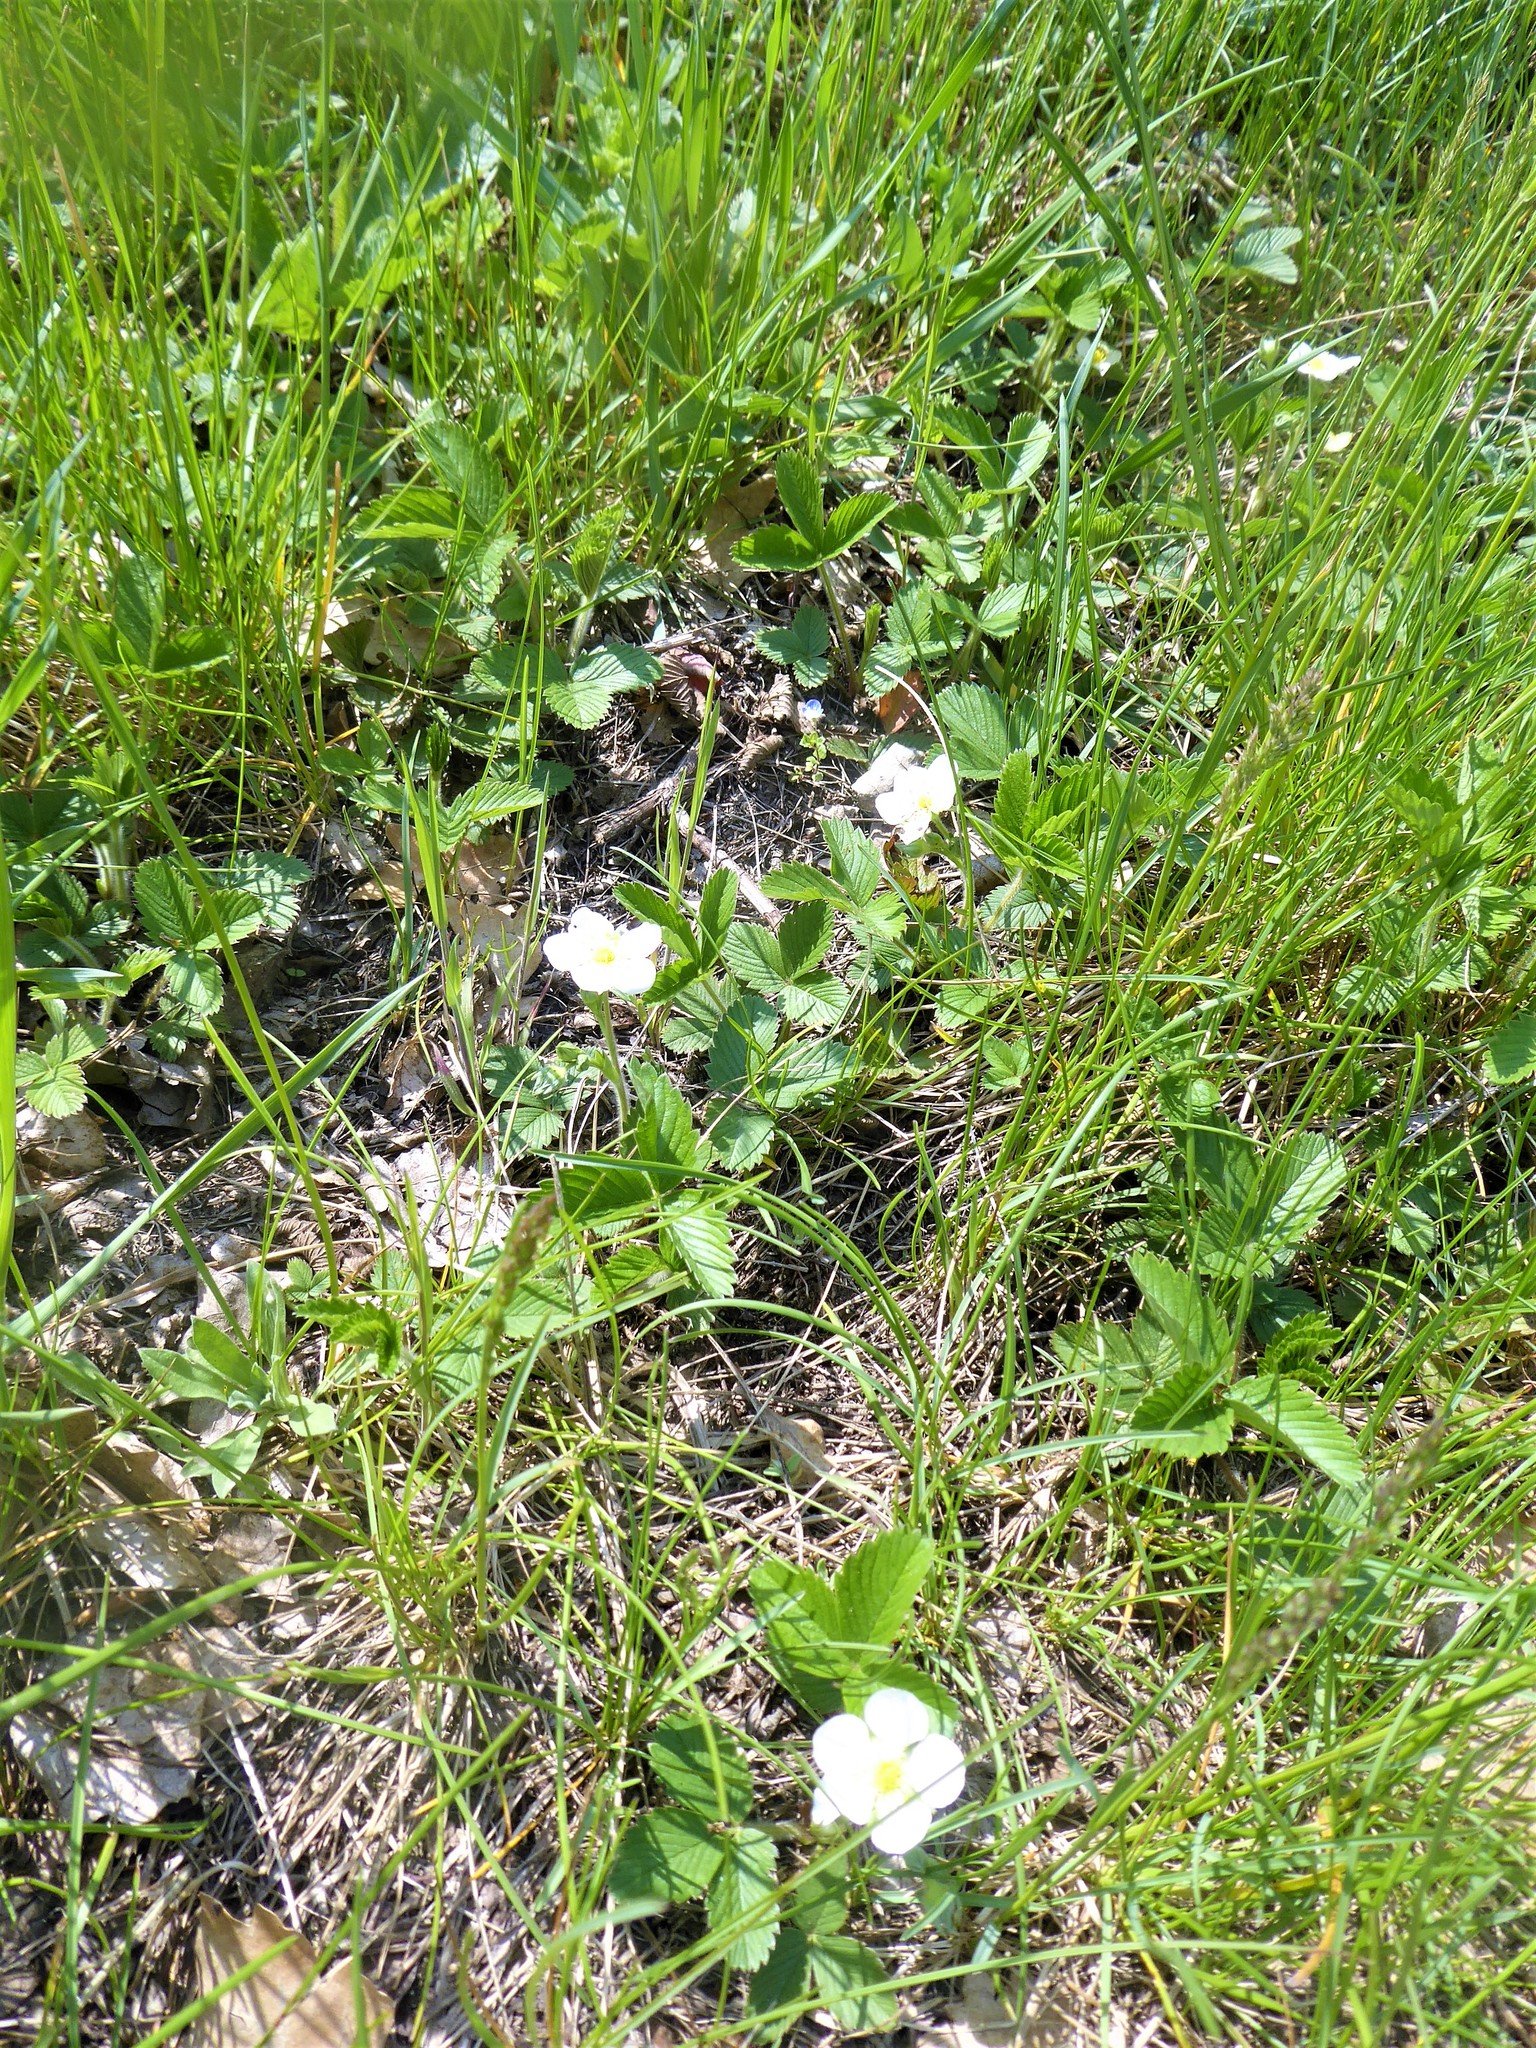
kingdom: Plantae
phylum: Tracheophyta
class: Magnoliopsida
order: Rosales
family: Rosaceae
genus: Fragaria
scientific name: Fragaria viridis
